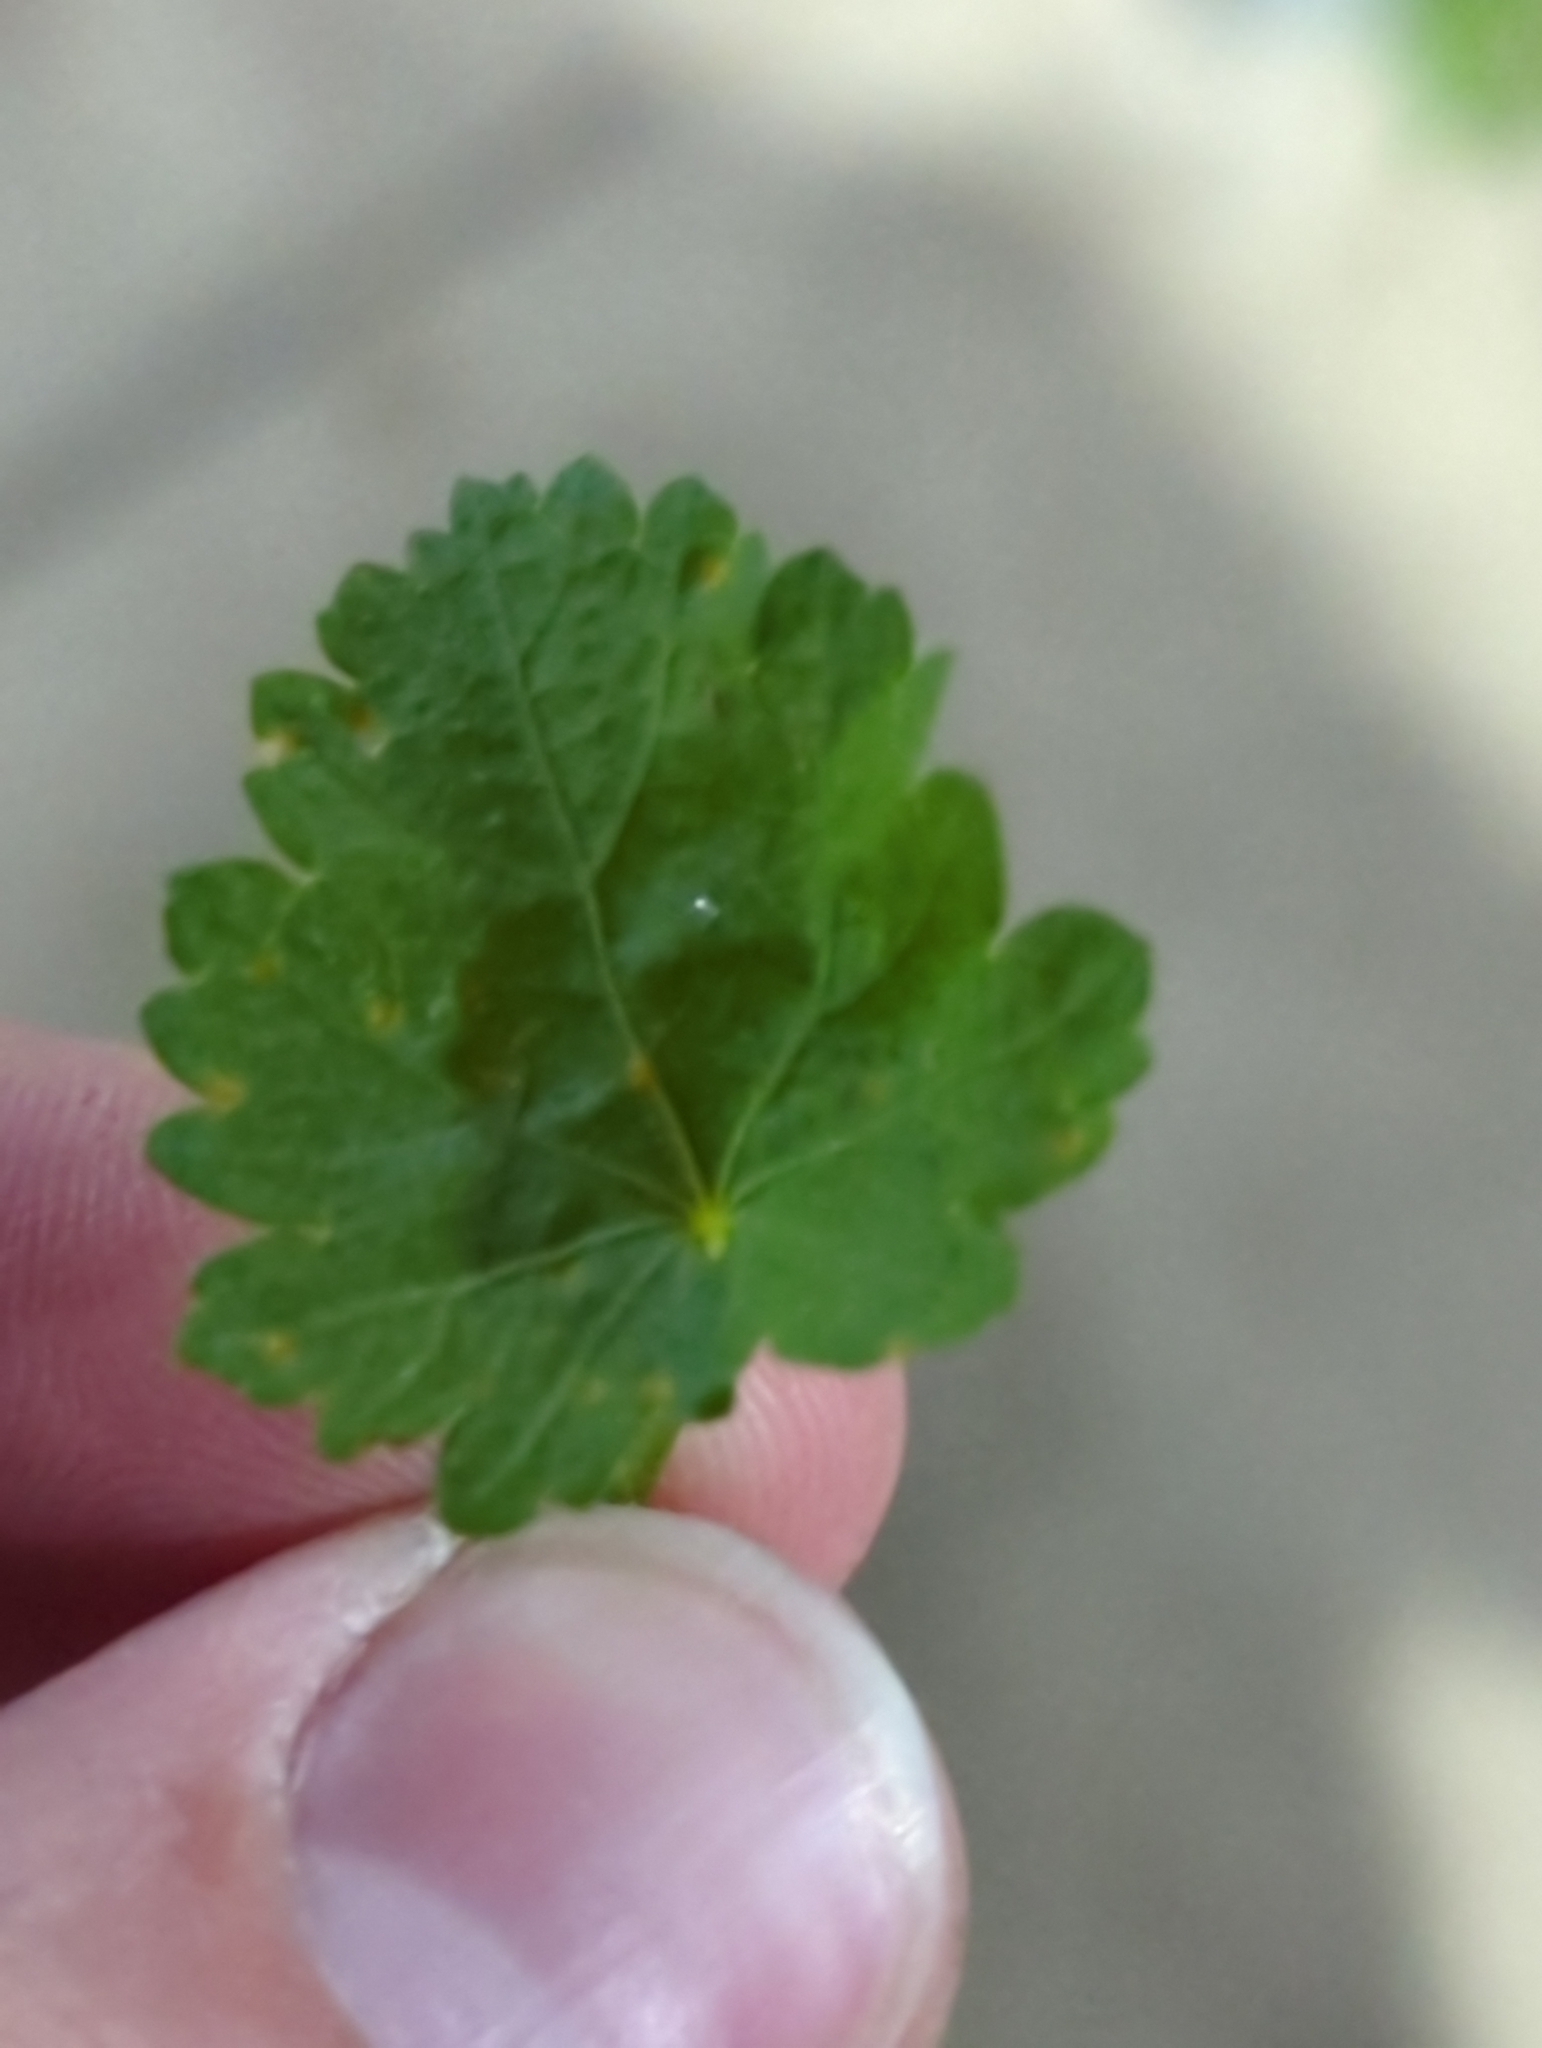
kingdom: Plantae
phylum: Tracheophyta
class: Magnoliopsida
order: Malvales
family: Malvaceae
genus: Modiola
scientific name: Modiola caroliniana
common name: Carolina bristlemallow
